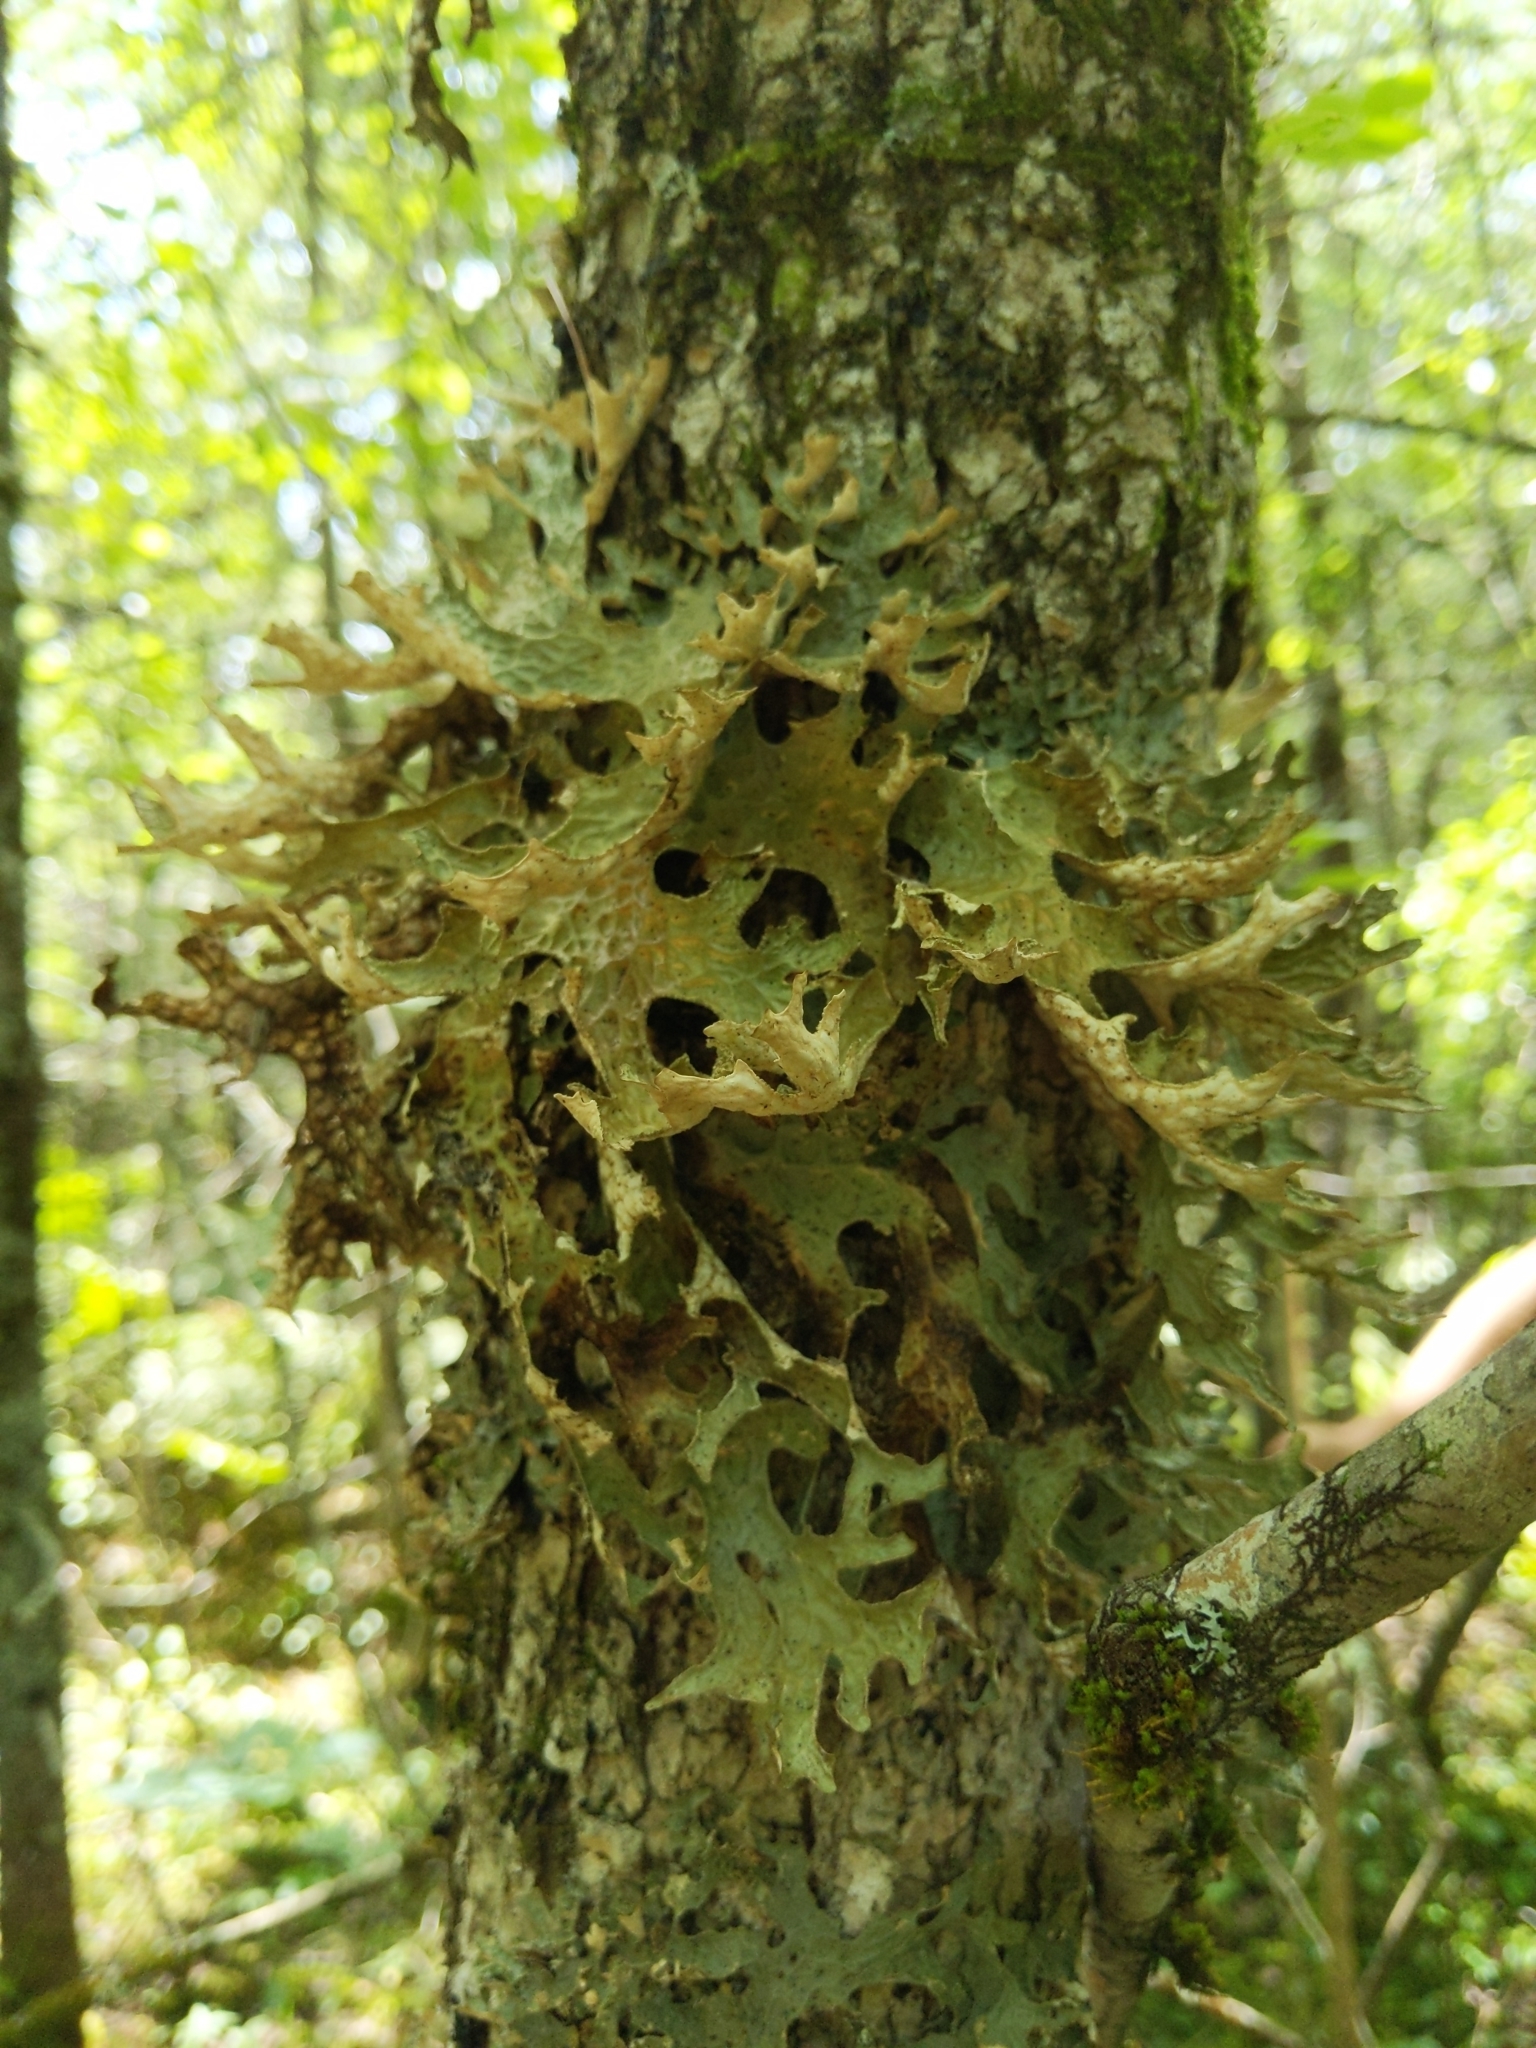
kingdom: Fungi
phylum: Ascomycota
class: Lecanoromycetes
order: Peltigerales
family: Lobariaceae
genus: Lobaria
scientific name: Lobaria pulmonaria
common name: Lungwort
